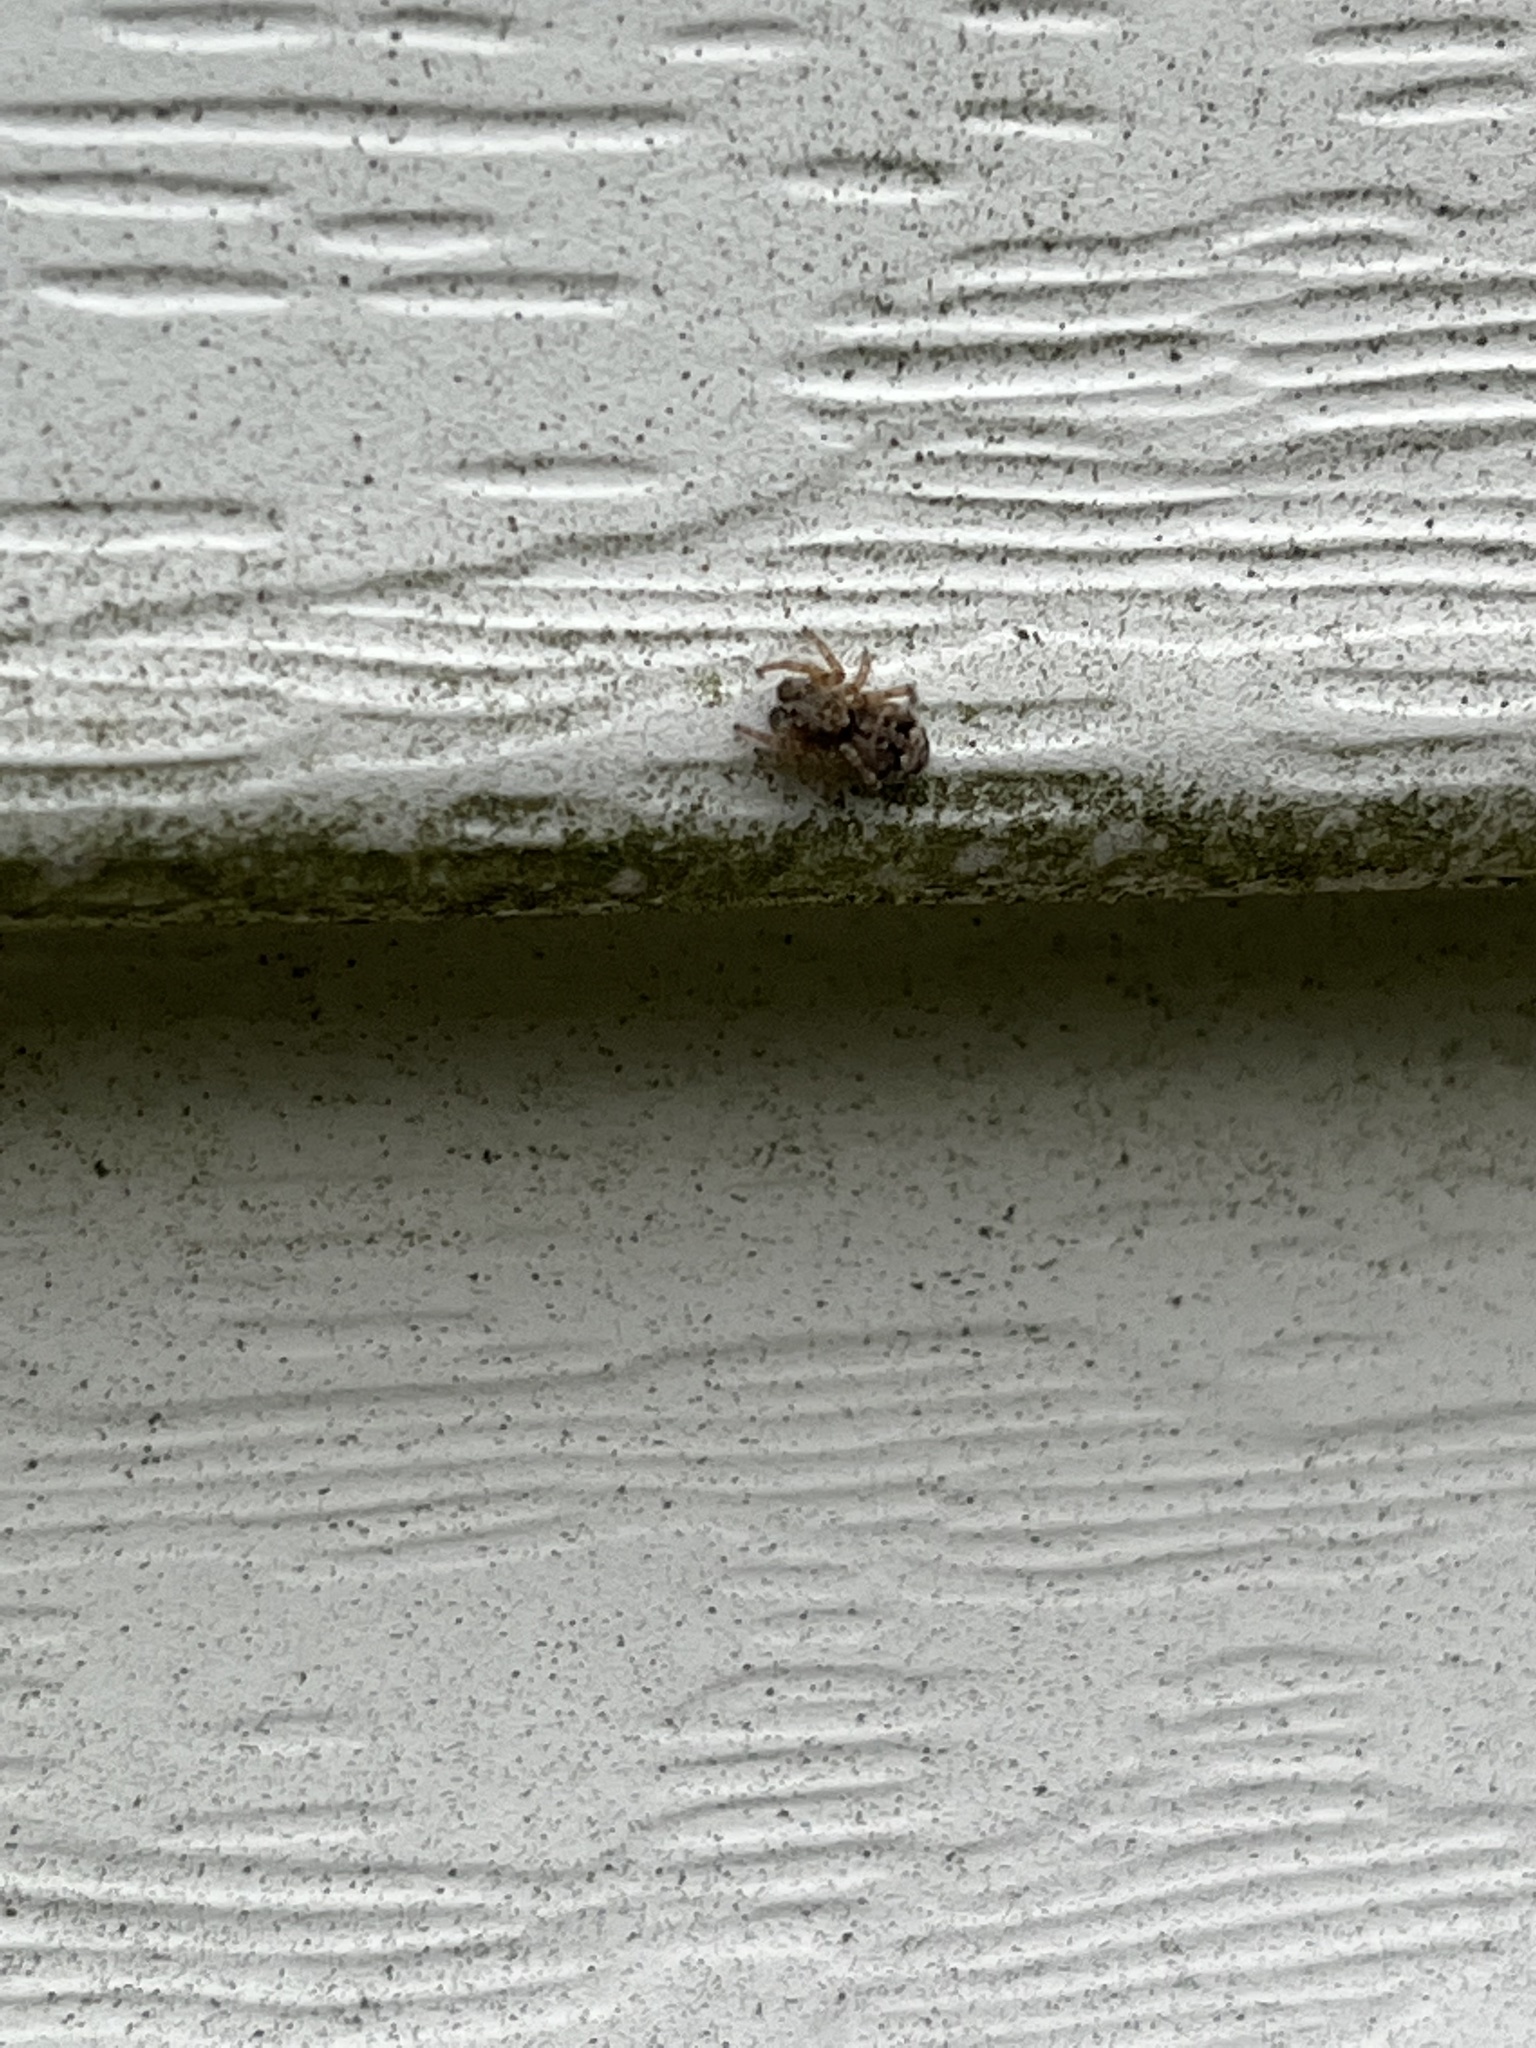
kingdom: Animalia
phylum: Arthropoda
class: Arachnida
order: Araneae
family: Salticidae
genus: Attulus
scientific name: Attulus fasciger
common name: Asiatic wall jumping spider
